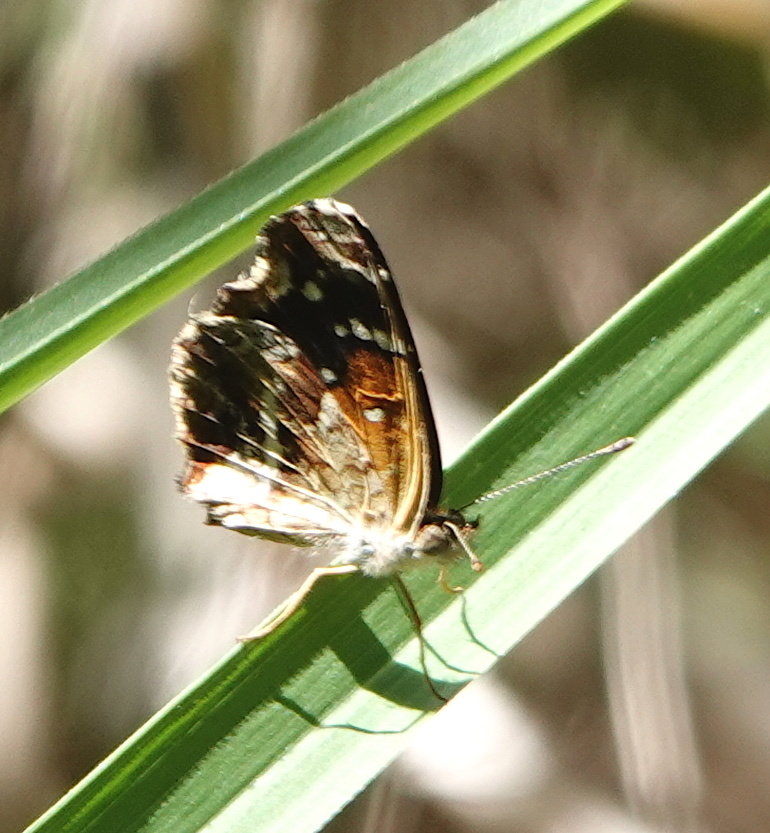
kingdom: Animalia
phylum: Arthropoda
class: Insecta
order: Lepidoptera
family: Nymphalidae
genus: Anthanassa
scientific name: Anthanassa texana
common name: Texan crescent
